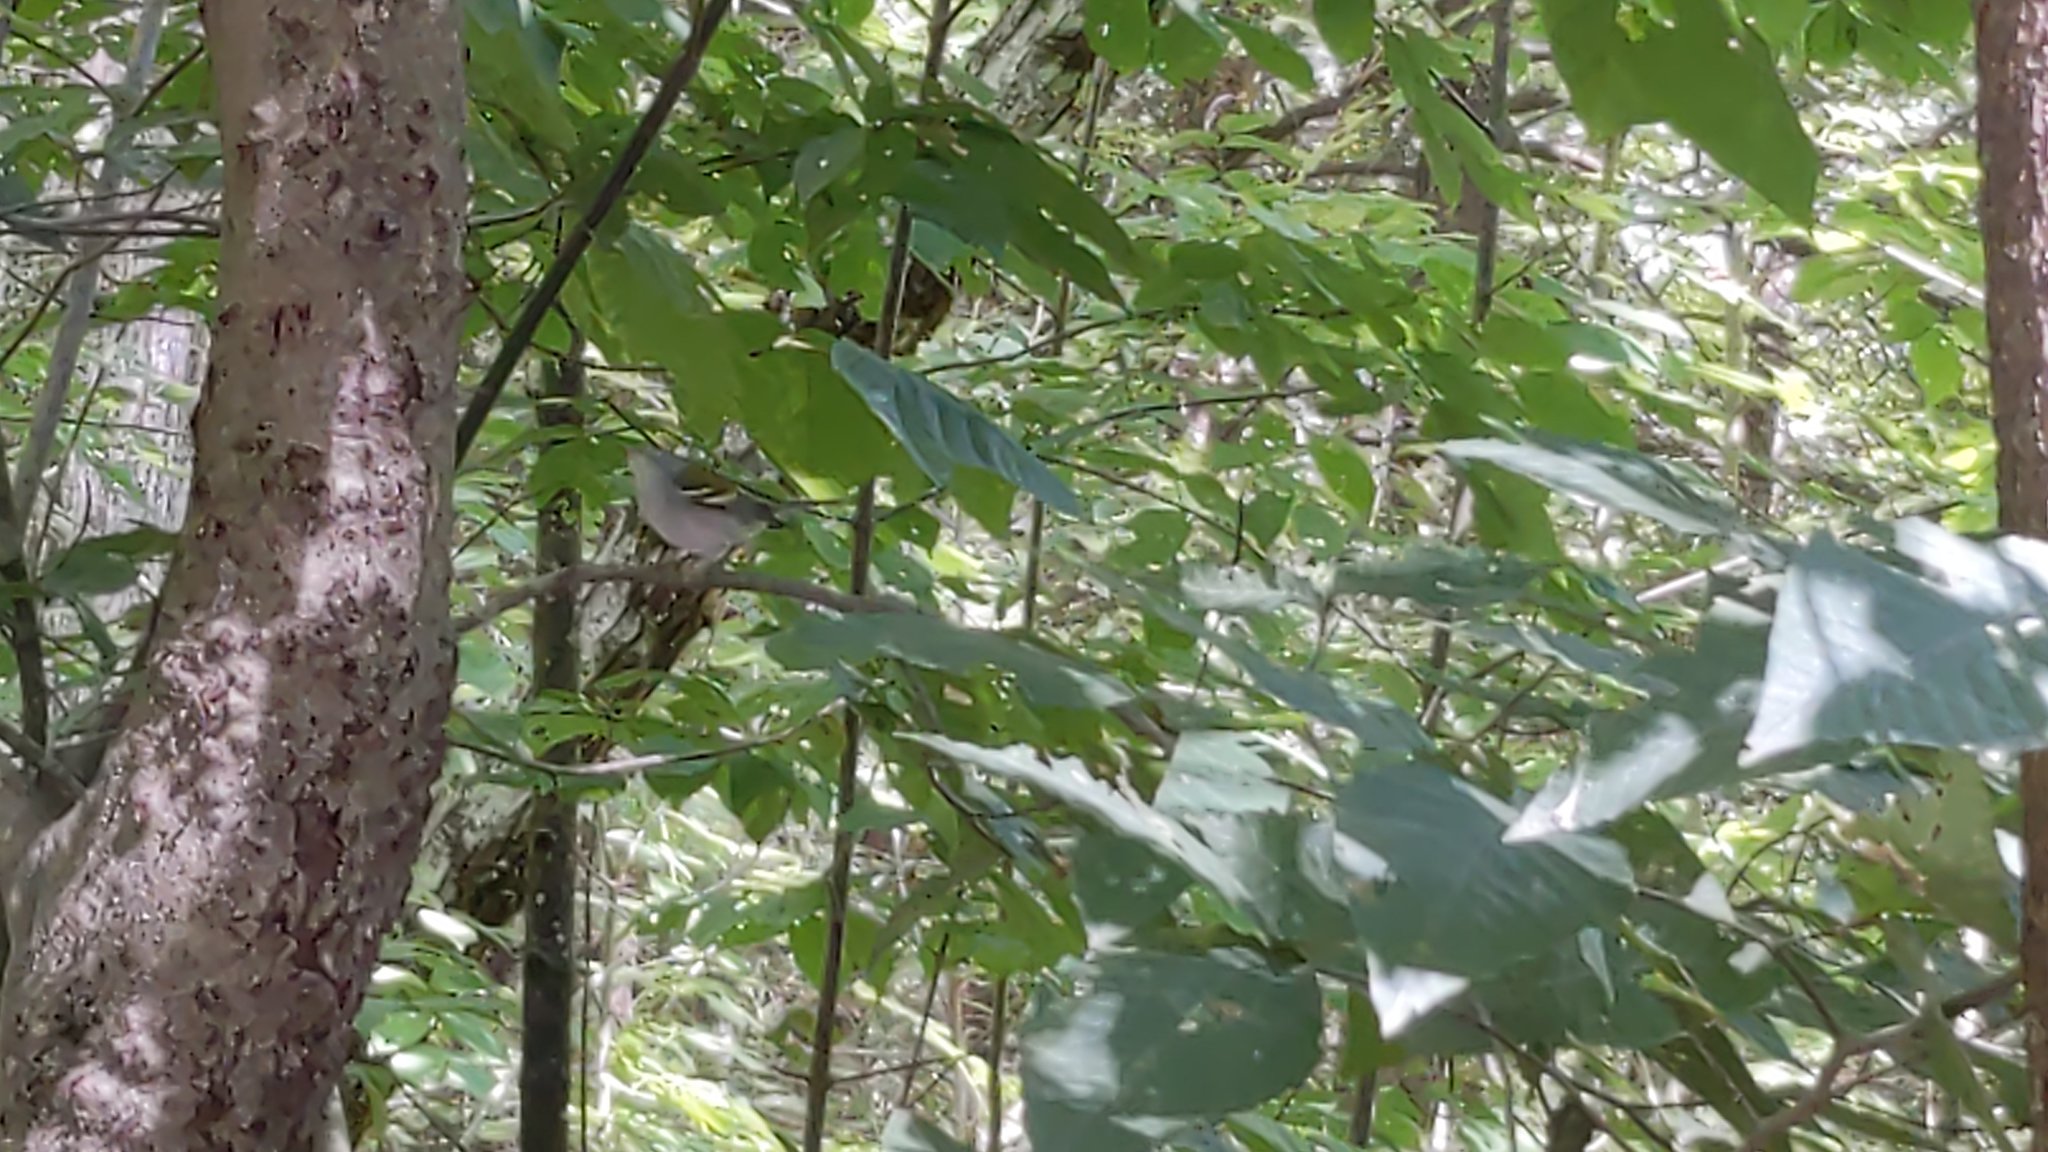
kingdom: Animalia
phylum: Chordata
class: Aves
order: Passeriformes
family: Parulidae
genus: Setophaga
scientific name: Setophaga pensylvanica
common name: Chestnut-sided warbler
